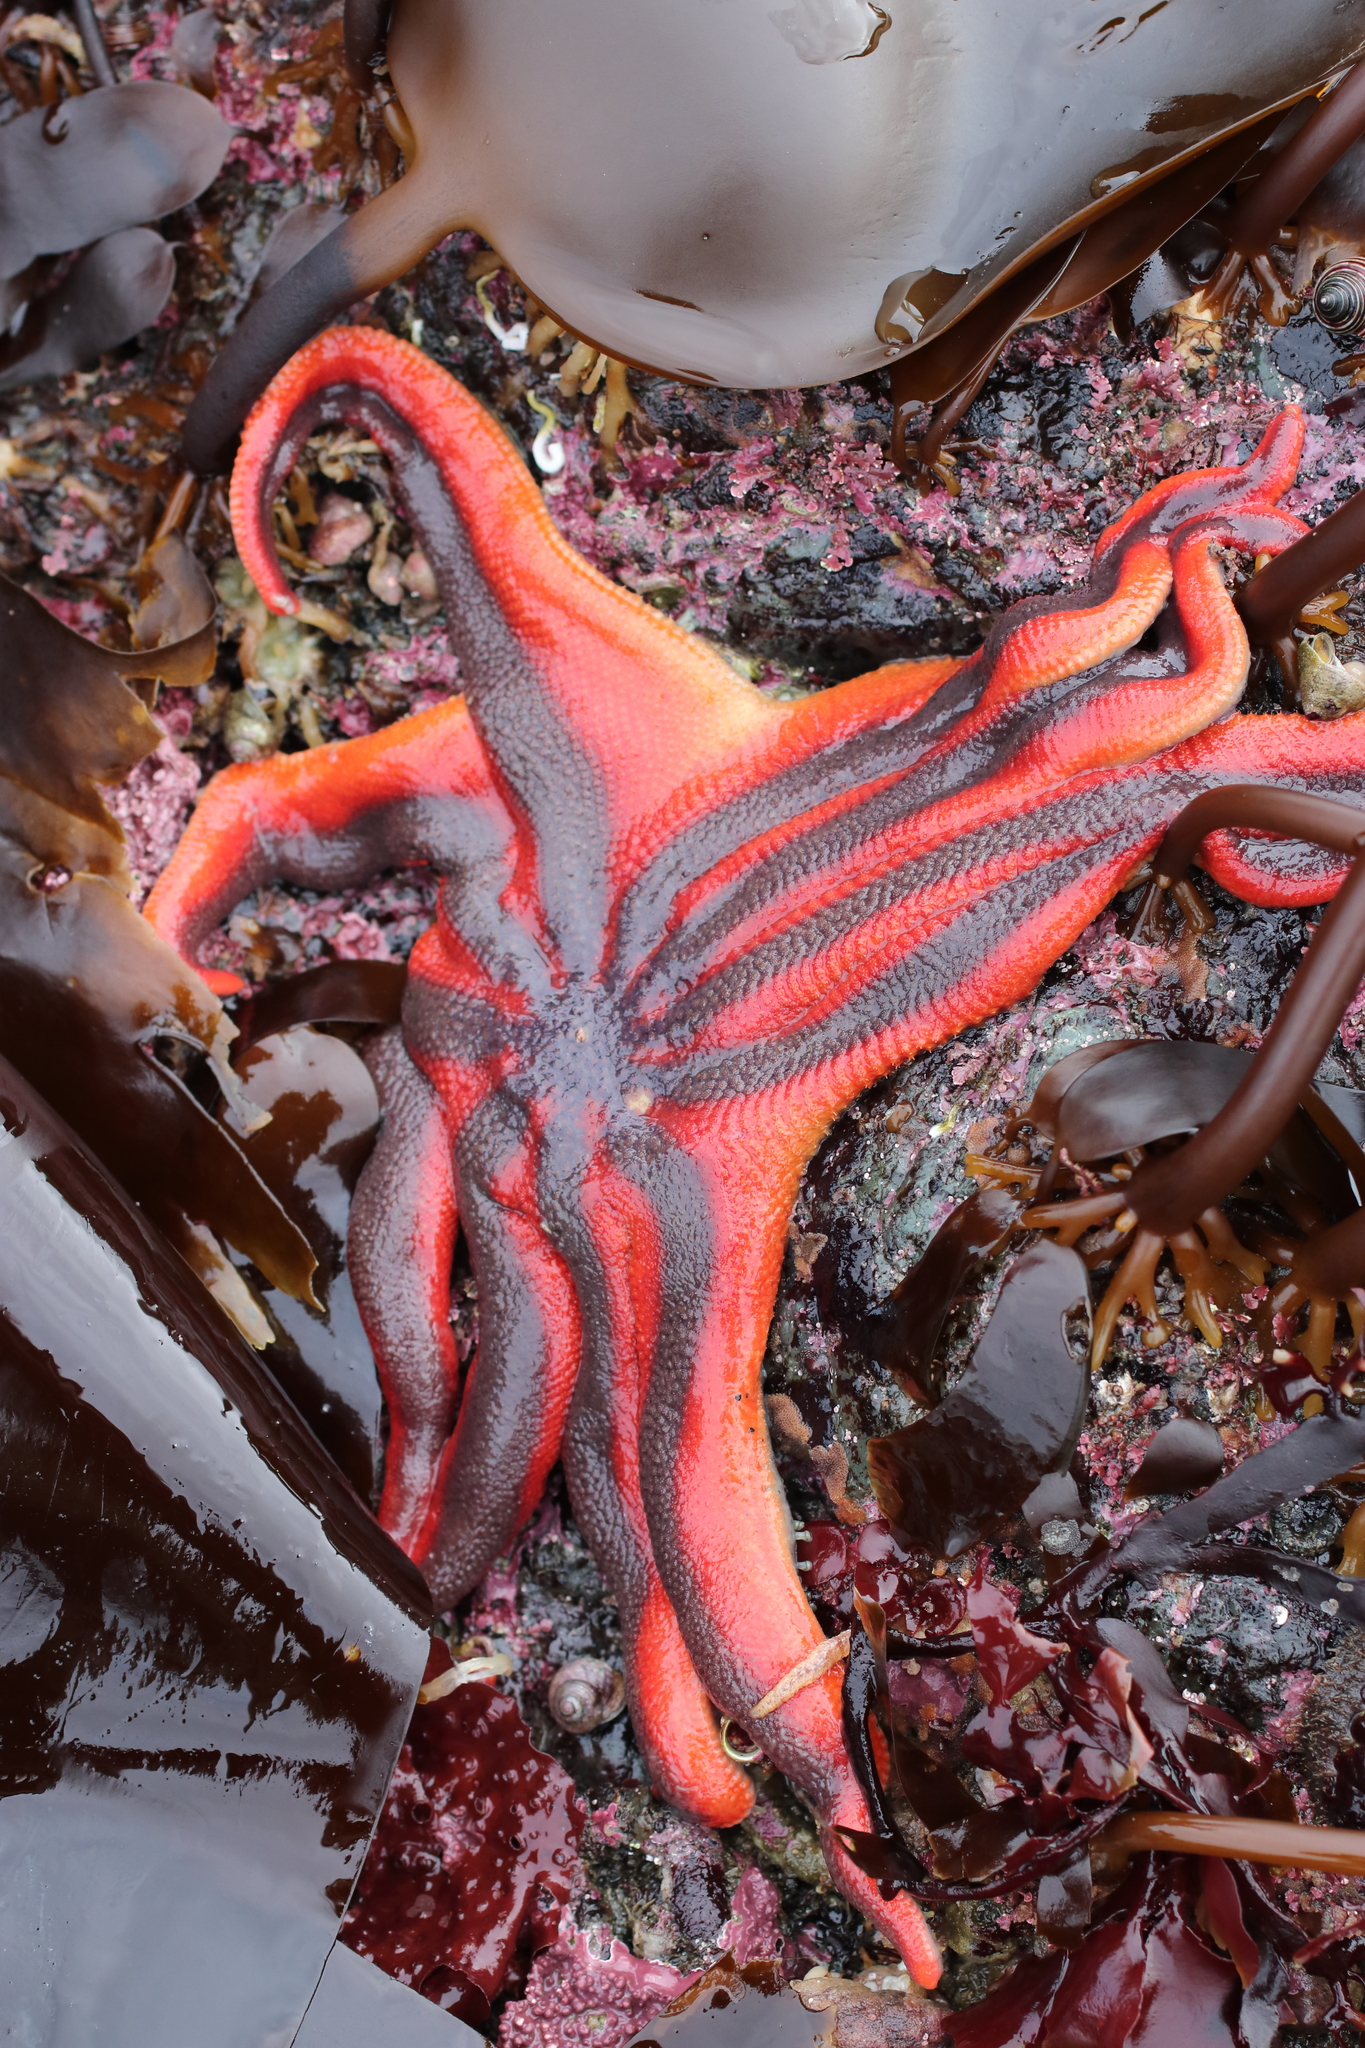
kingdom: Animalia
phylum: Echinodermata
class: Asteroidea
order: Valvatida
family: Solasteridae
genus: Solaster
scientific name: Solaster stimpsoni
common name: Orange sun star
